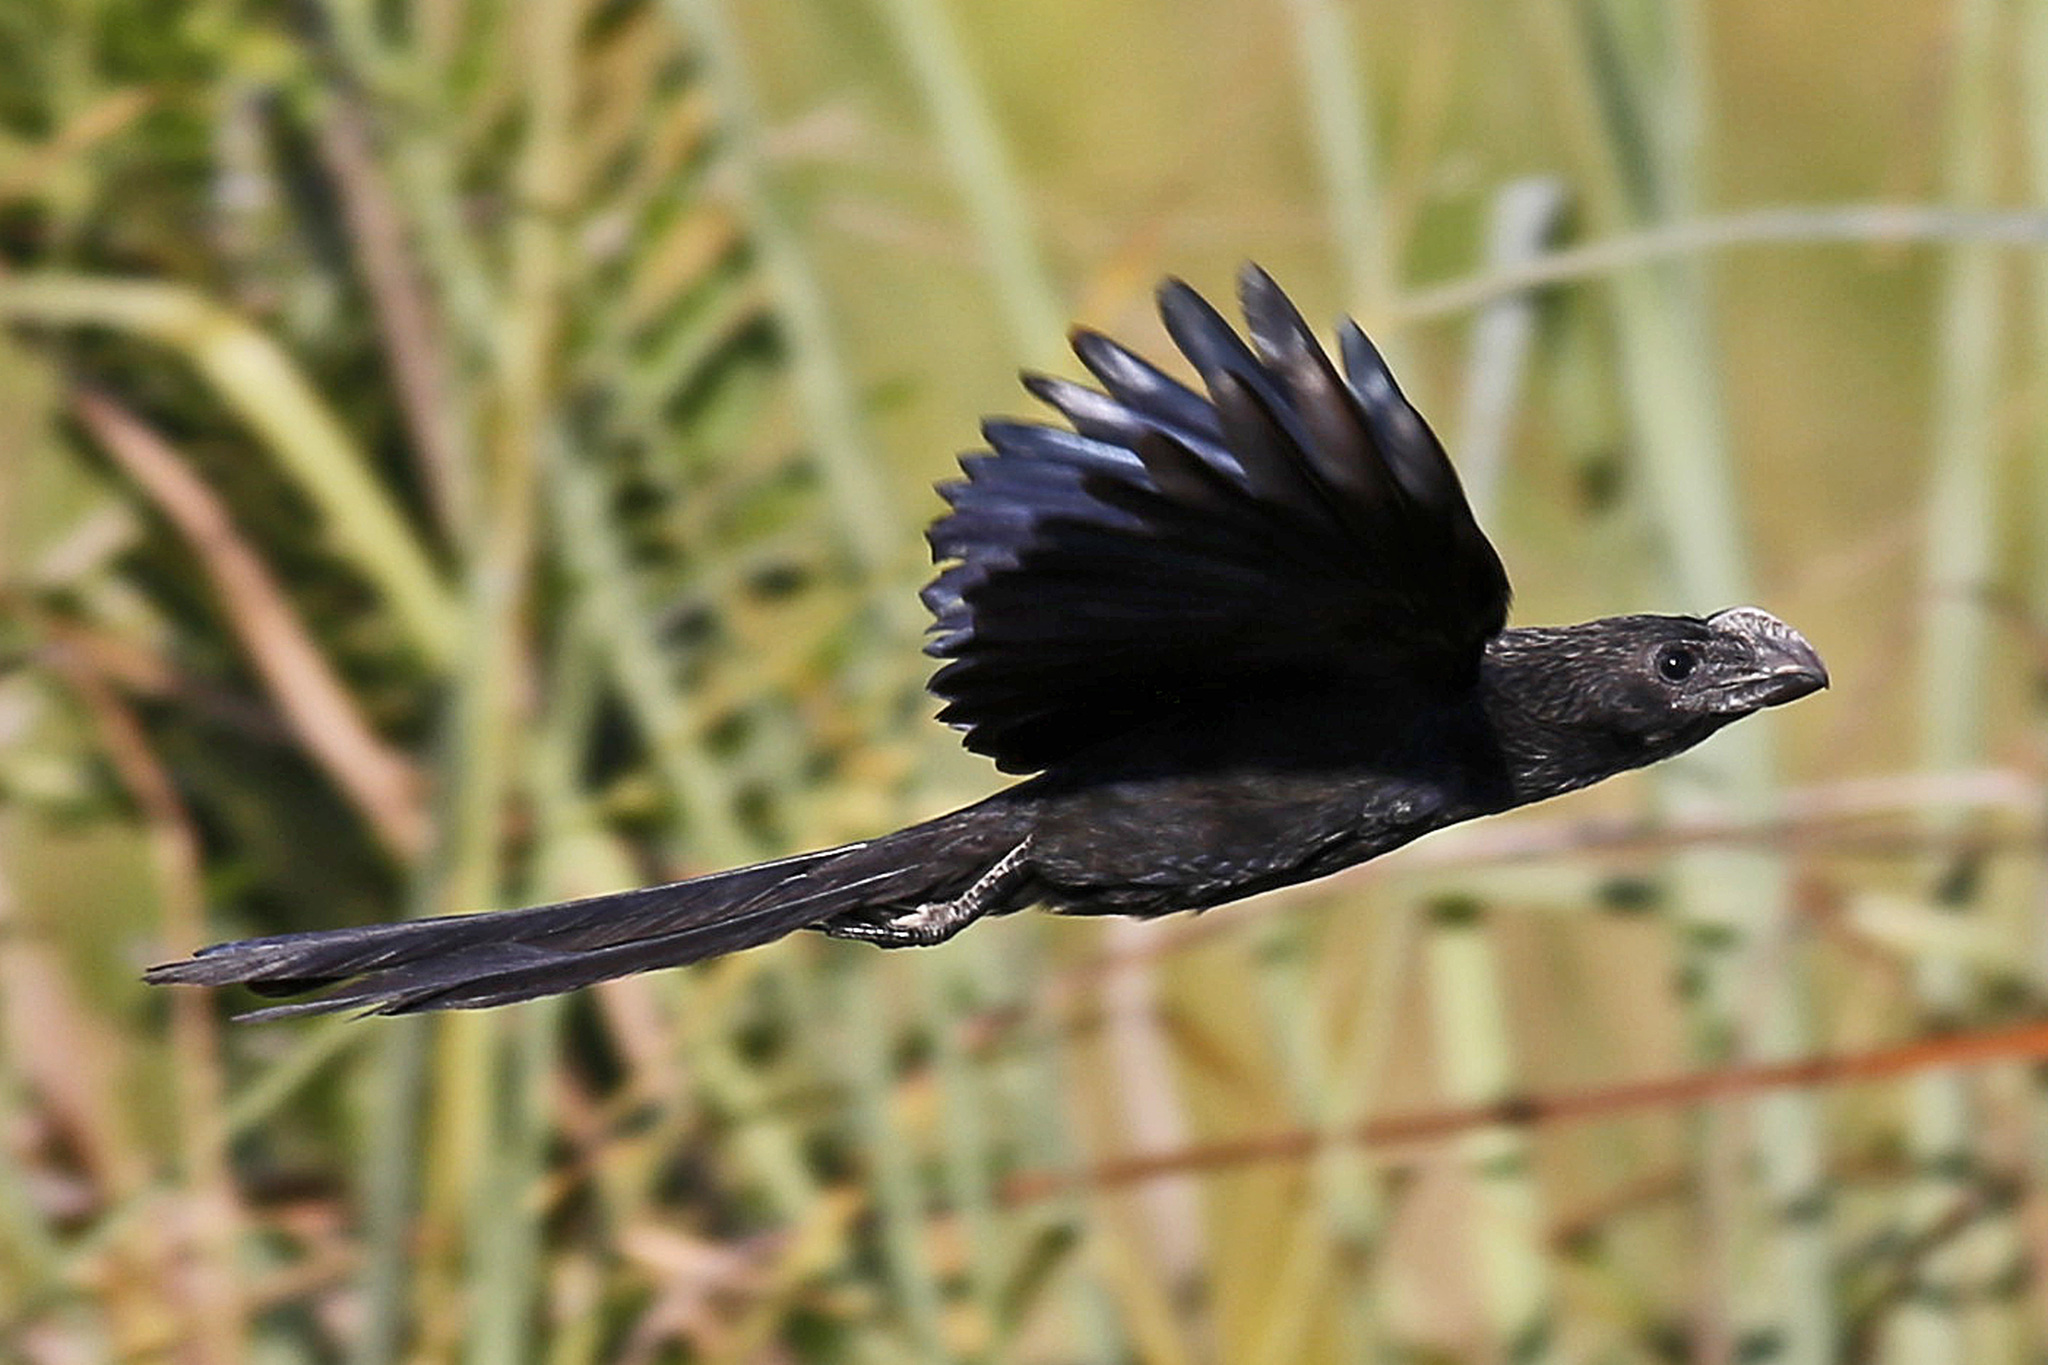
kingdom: Animalia
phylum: Chordata
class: Aves
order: Cuculiformes
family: Cuculidae
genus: Crotophaga
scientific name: Crotophaga ani
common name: Smooth-billed ani
